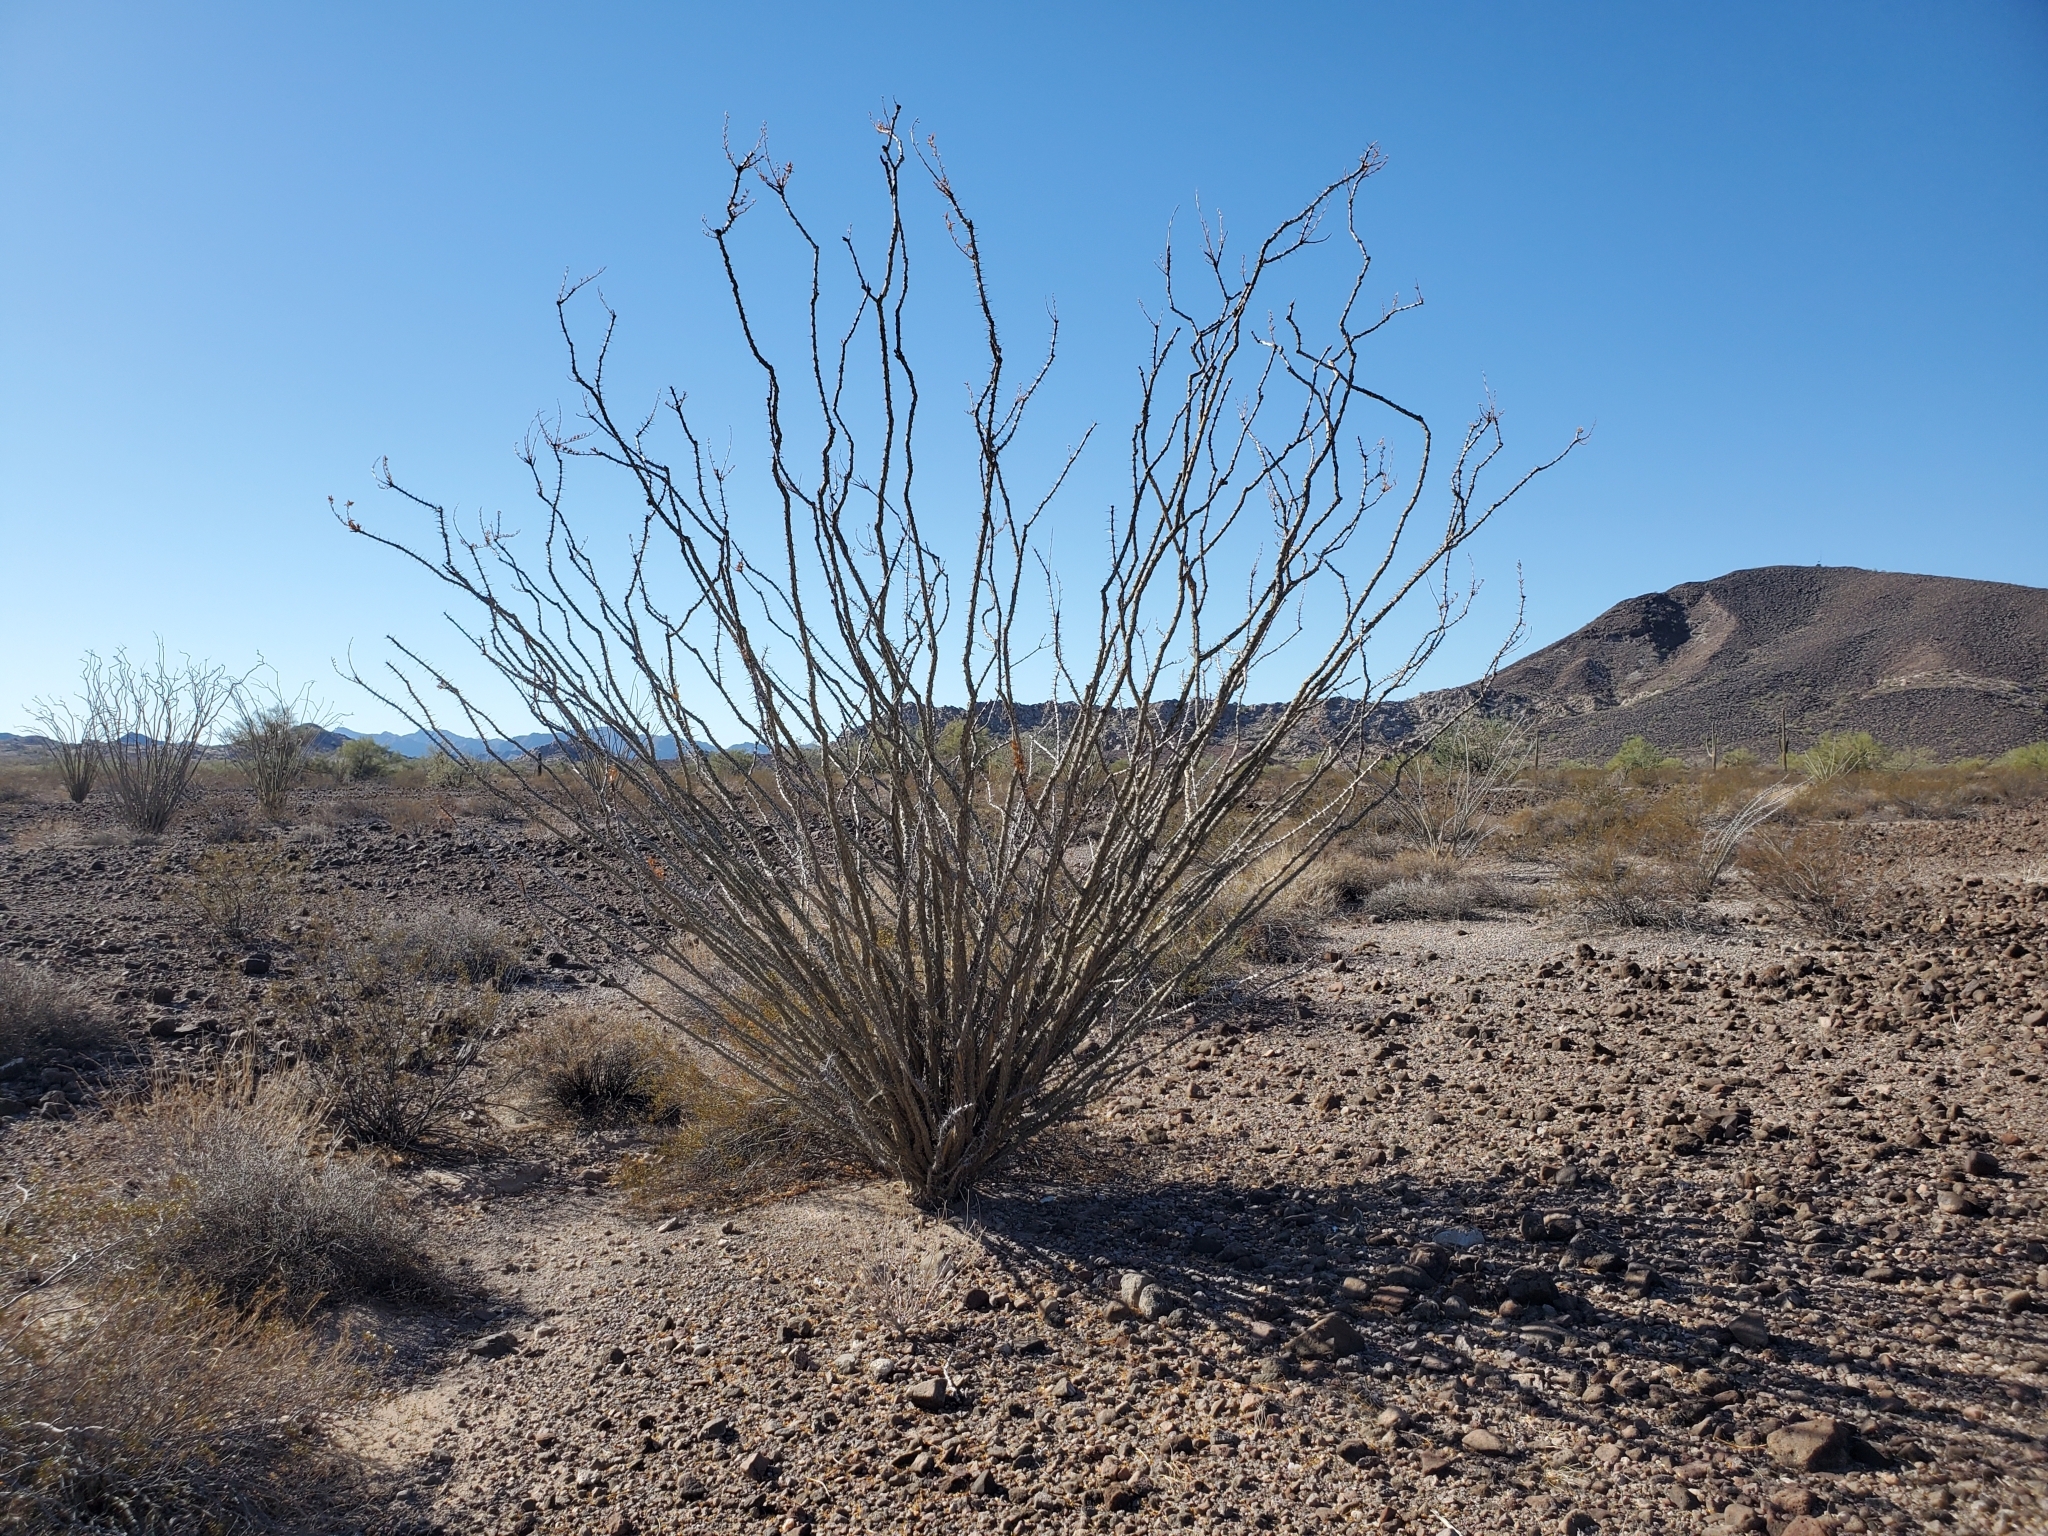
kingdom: Plantae
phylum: Tracheophyta
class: Magnoliopsida
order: Ericales
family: Fouquieriaceae
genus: Fouquieria
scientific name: Fouquieria splendens
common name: Vine-cactus
